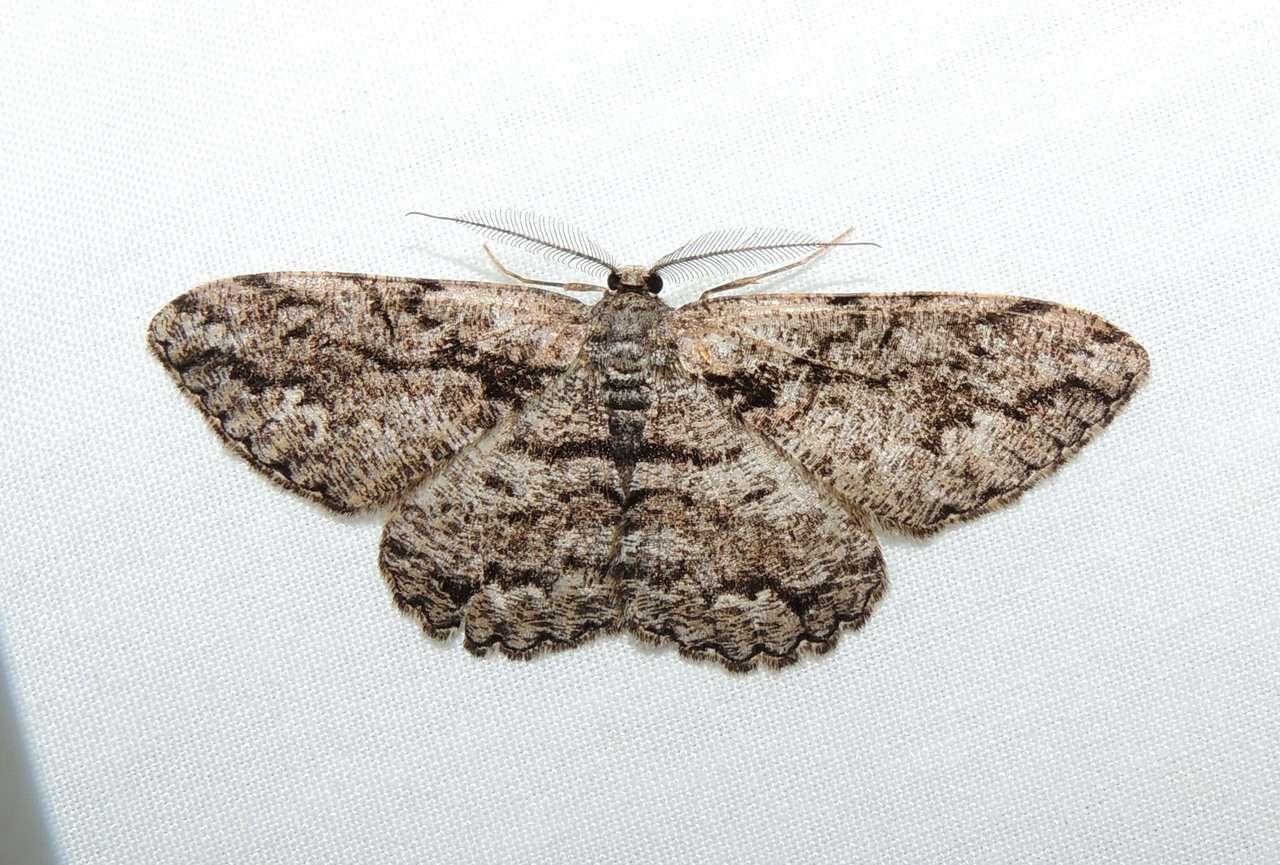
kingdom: Animalia
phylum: Arthropoda
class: Insecta
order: Lepidoptera
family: Geometridae
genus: Scioglyptis
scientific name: Scioglyptis canescaria
